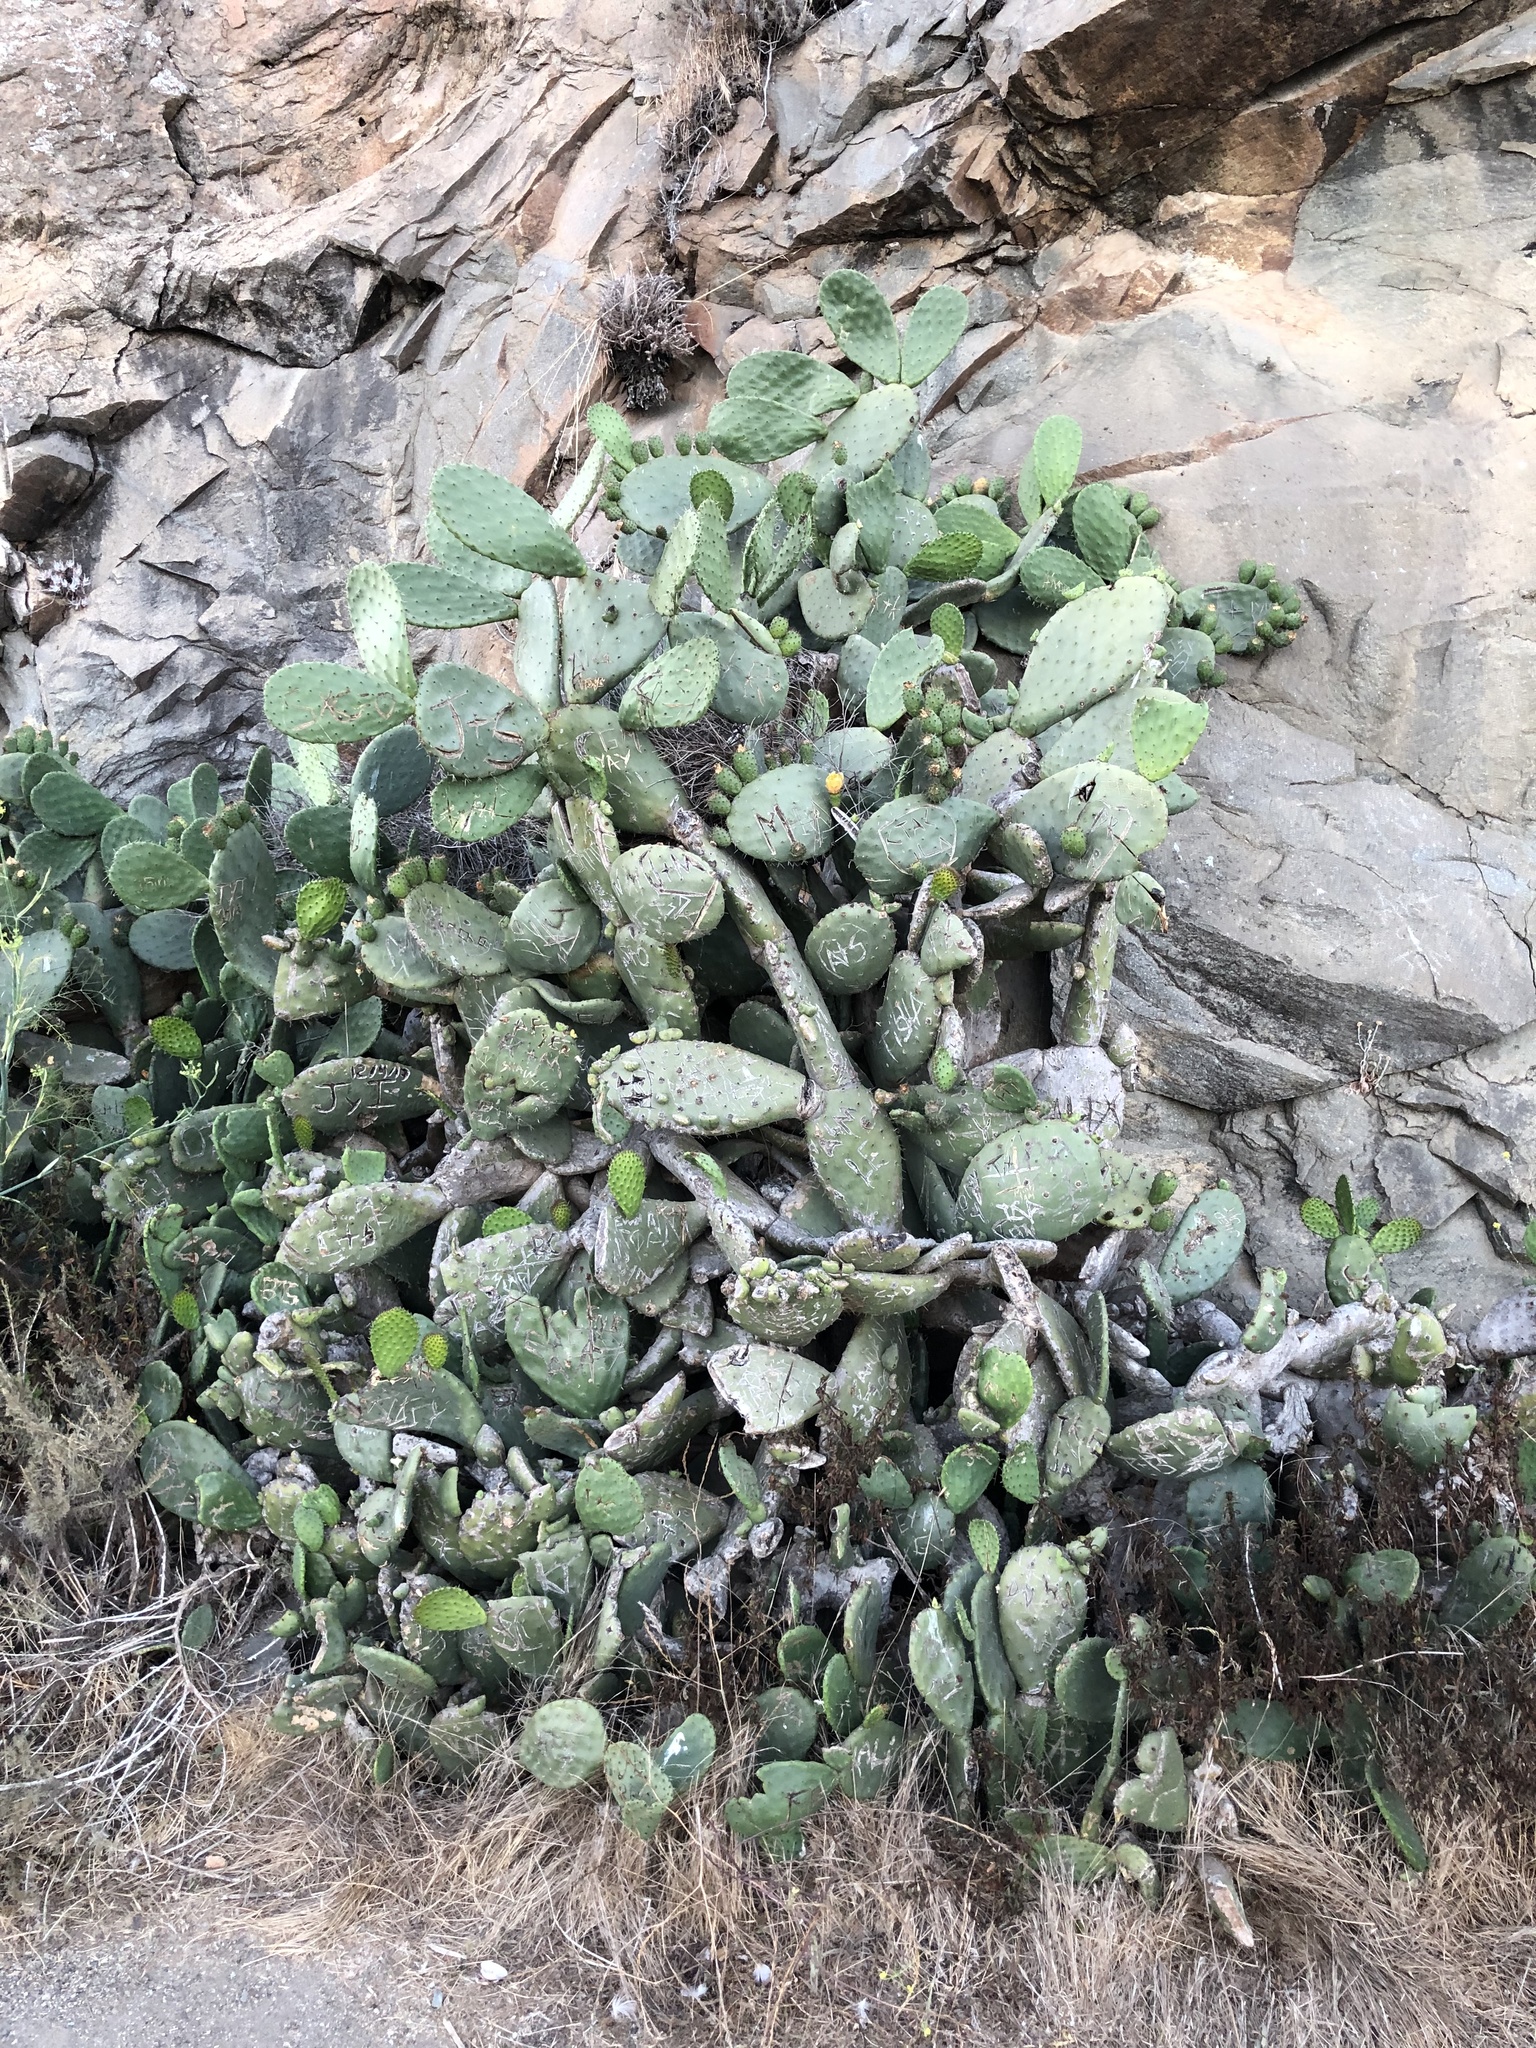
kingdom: Plantae
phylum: Tracheophyta
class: Magnoliopsida
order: Caryophyllales
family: Cactaceae
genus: Opuntia
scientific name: Opuntia ficus-indica
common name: Barbary fig
